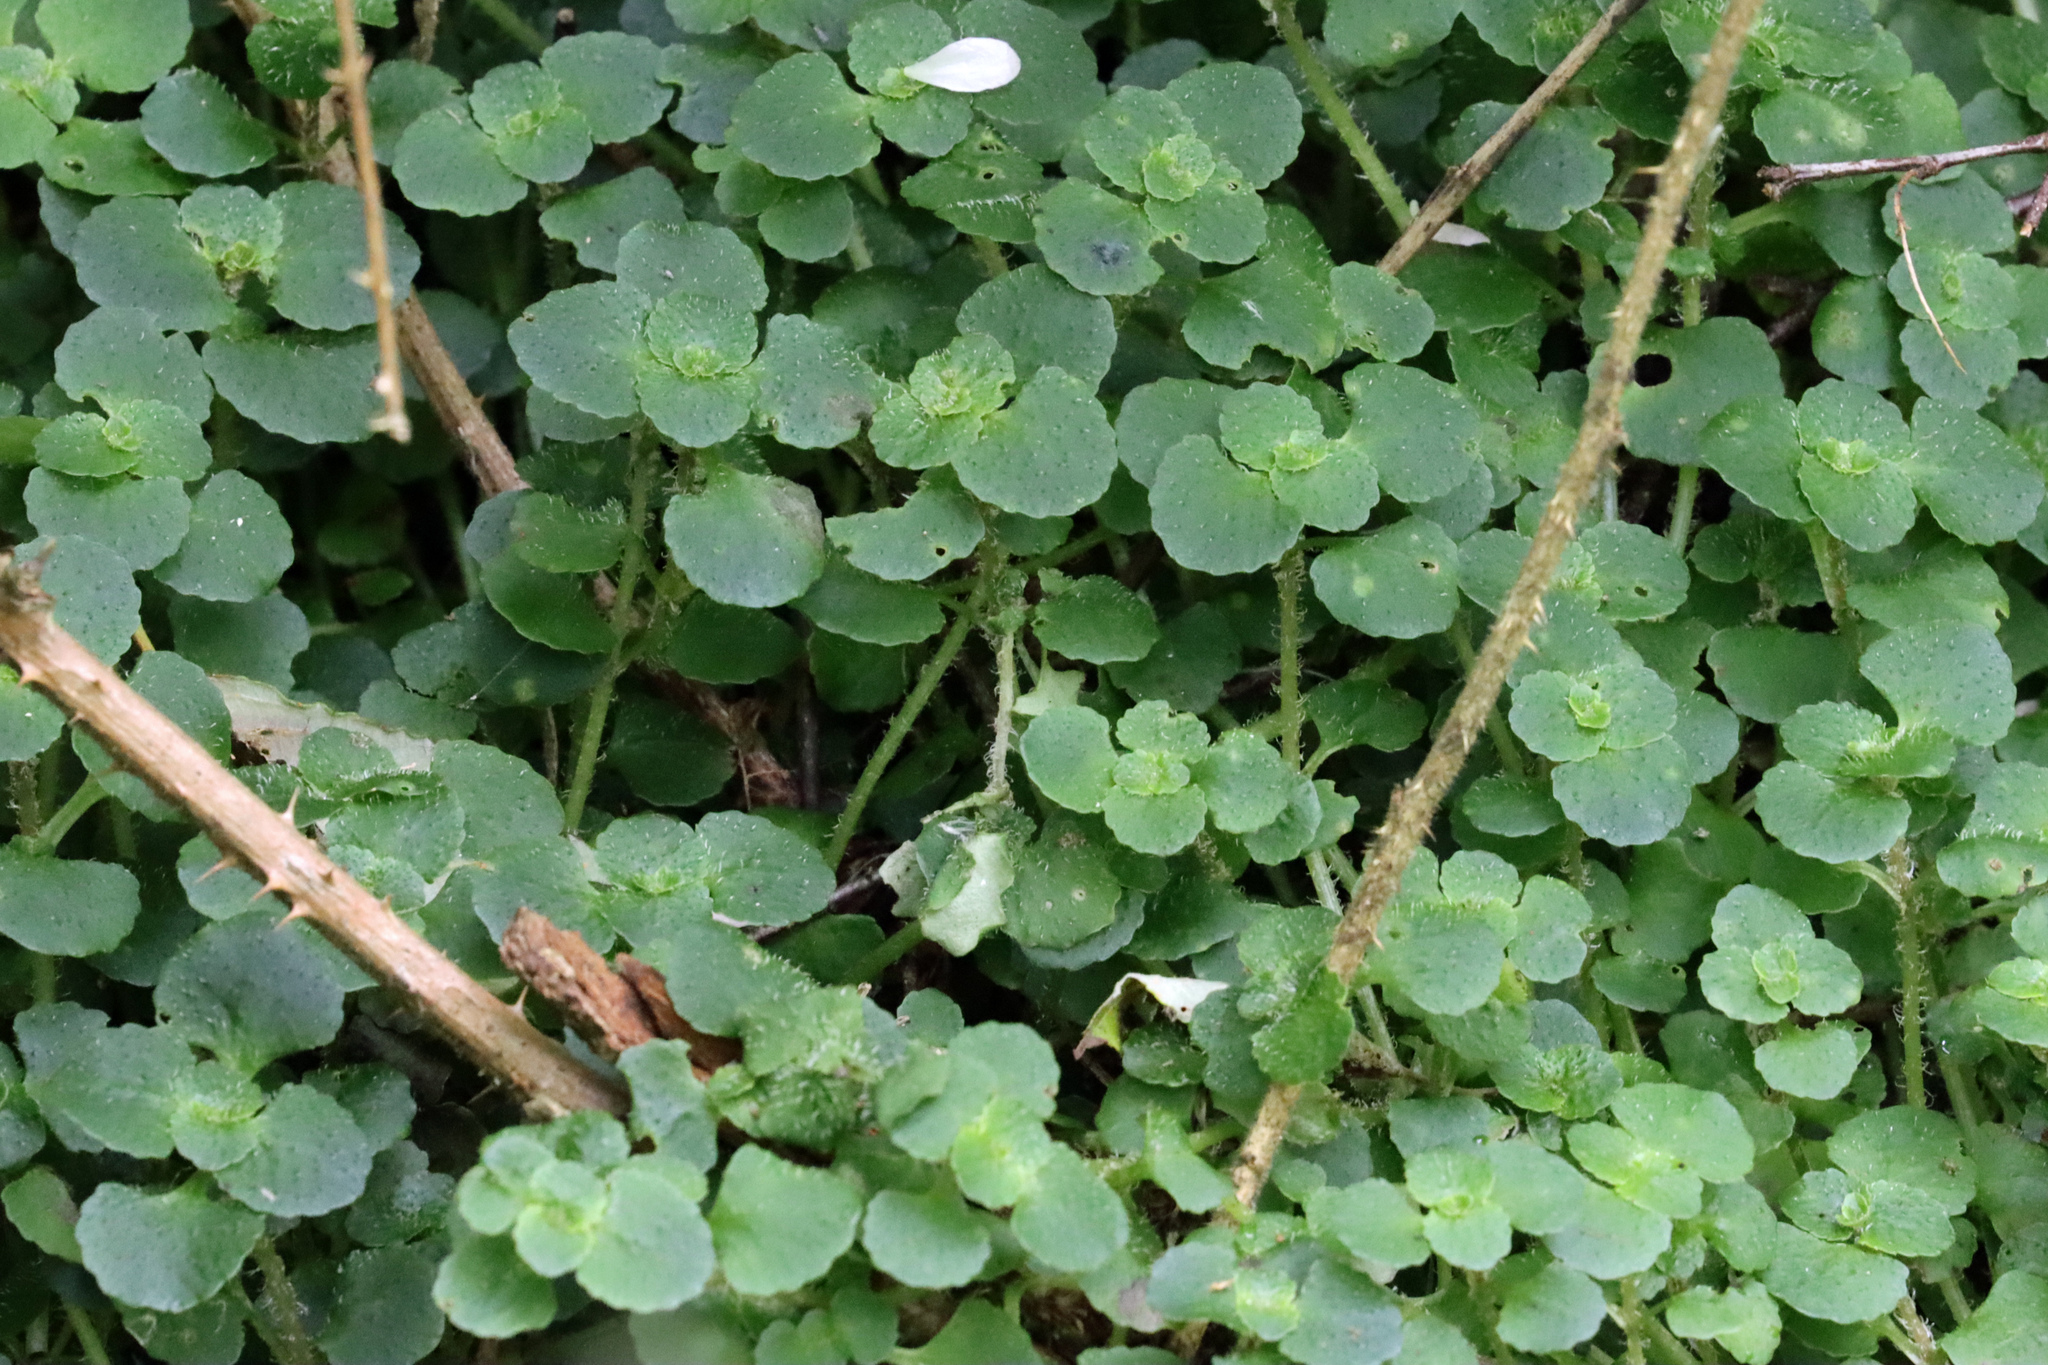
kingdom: Plantae
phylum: Tracheophyta
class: Magnoliopsida
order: Saxifragales
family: Saxifragaceae
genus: Chrysosplenium
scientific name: Chrysosplenium oppositifolium
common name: Opposite-leaved golden-saxifrage
